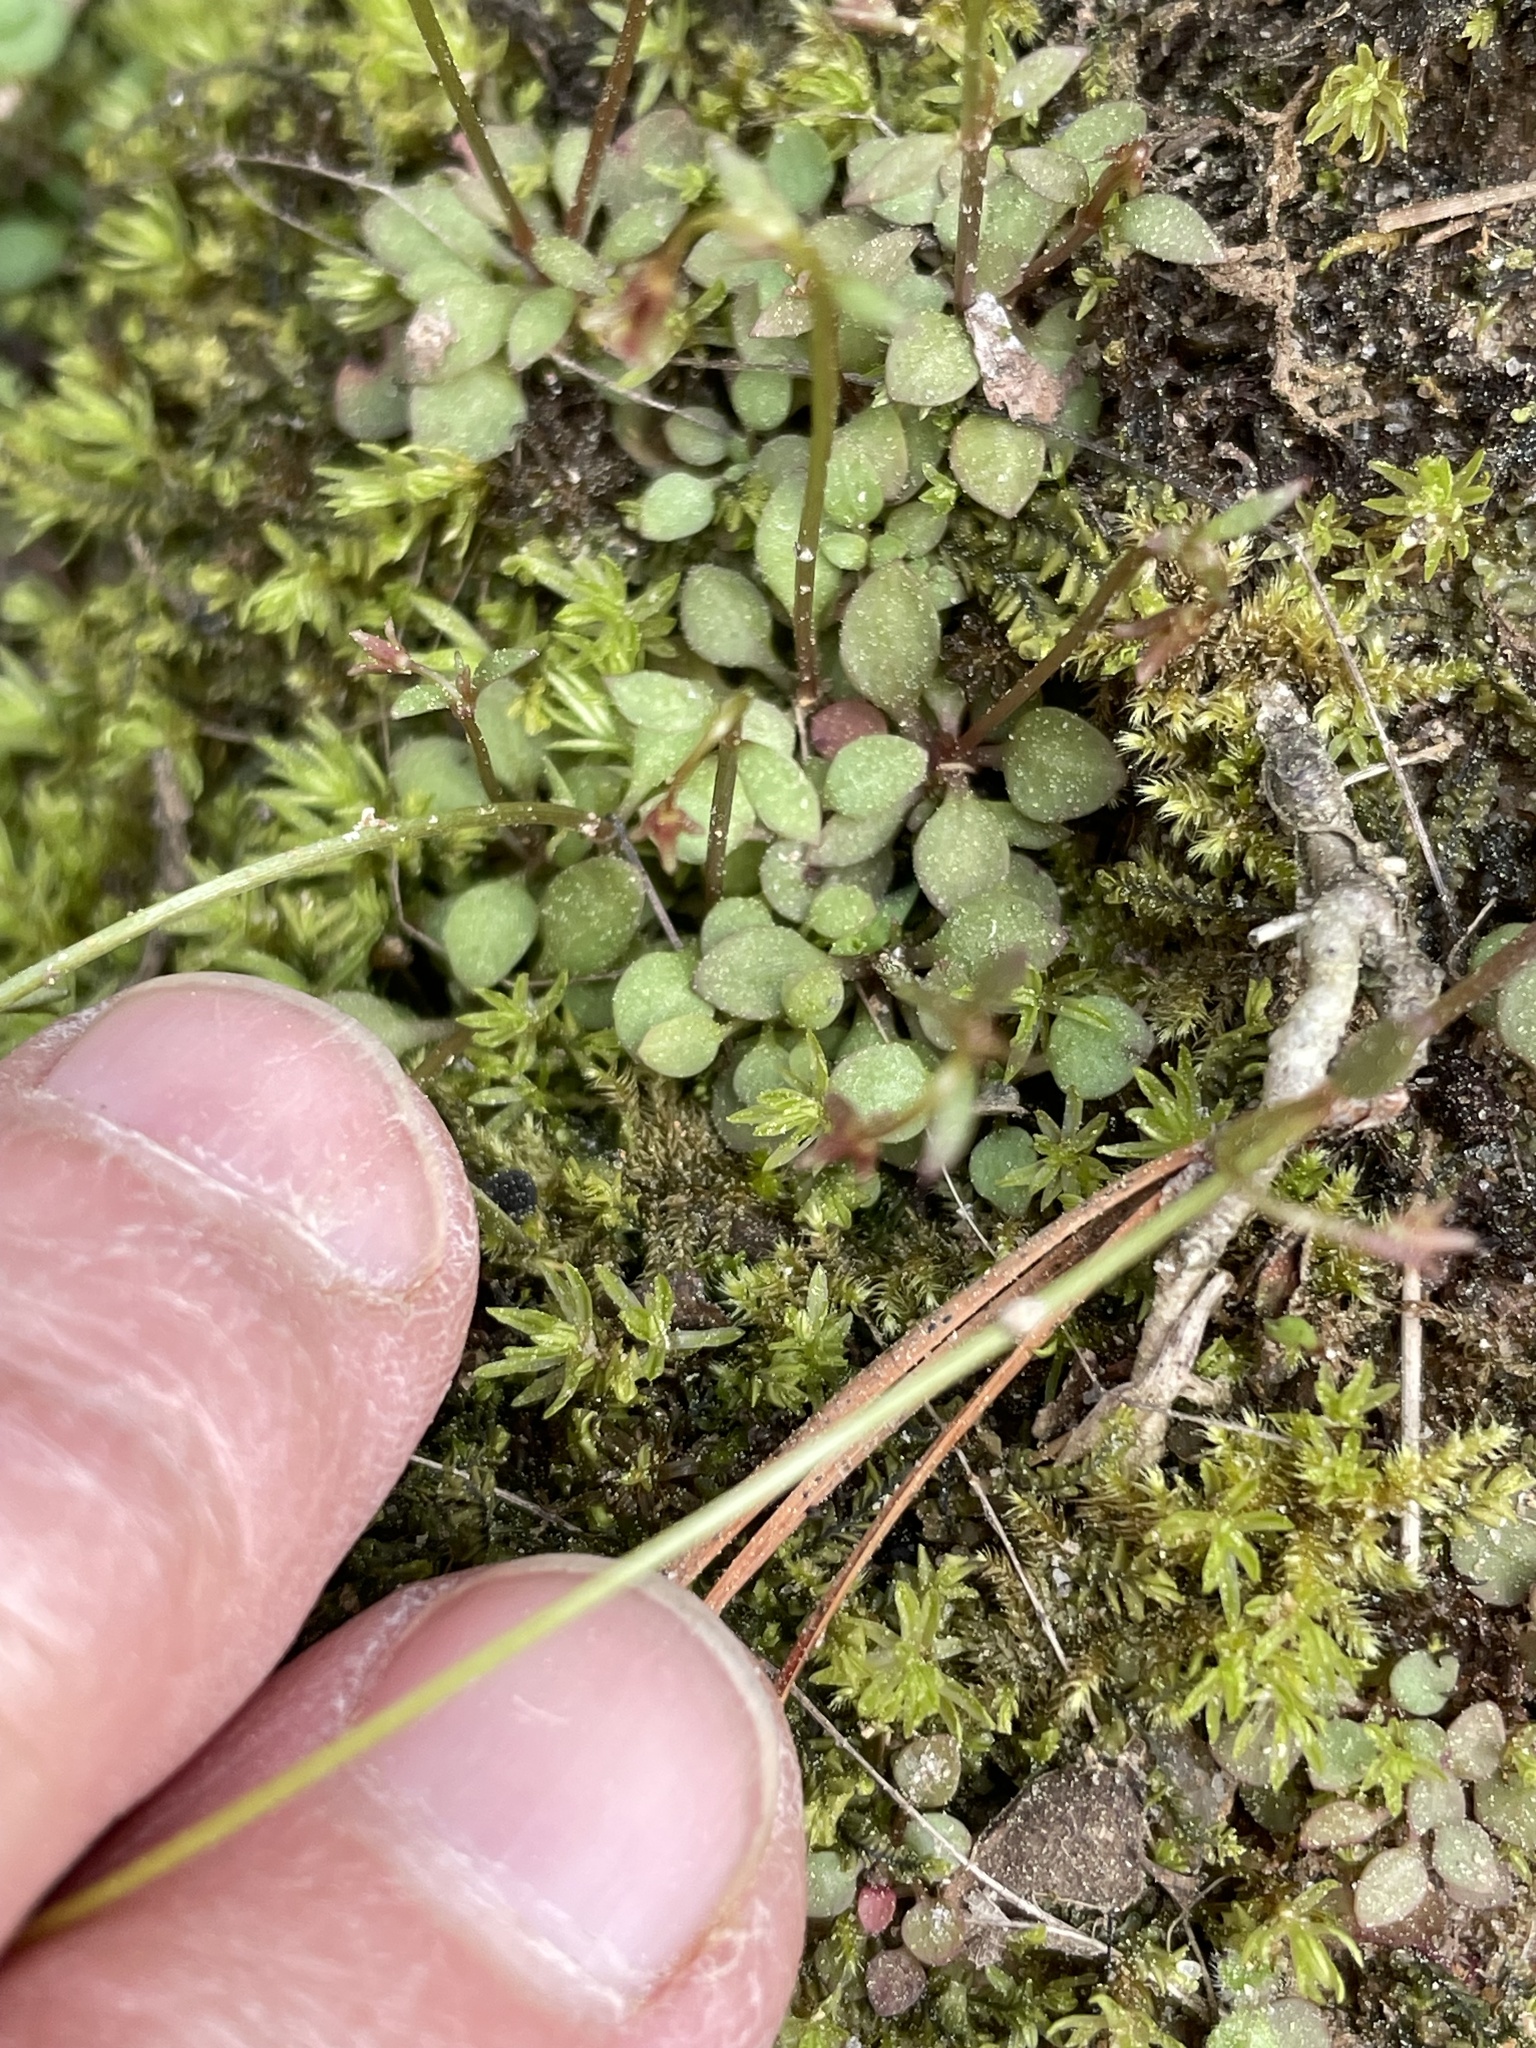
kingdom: Plantae
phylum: Tracheophyta
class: Magnoliopsida
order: Gentianales
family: Rubiaceae
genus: Houstonia
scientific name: Houstonia caerulea
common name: Bluets
